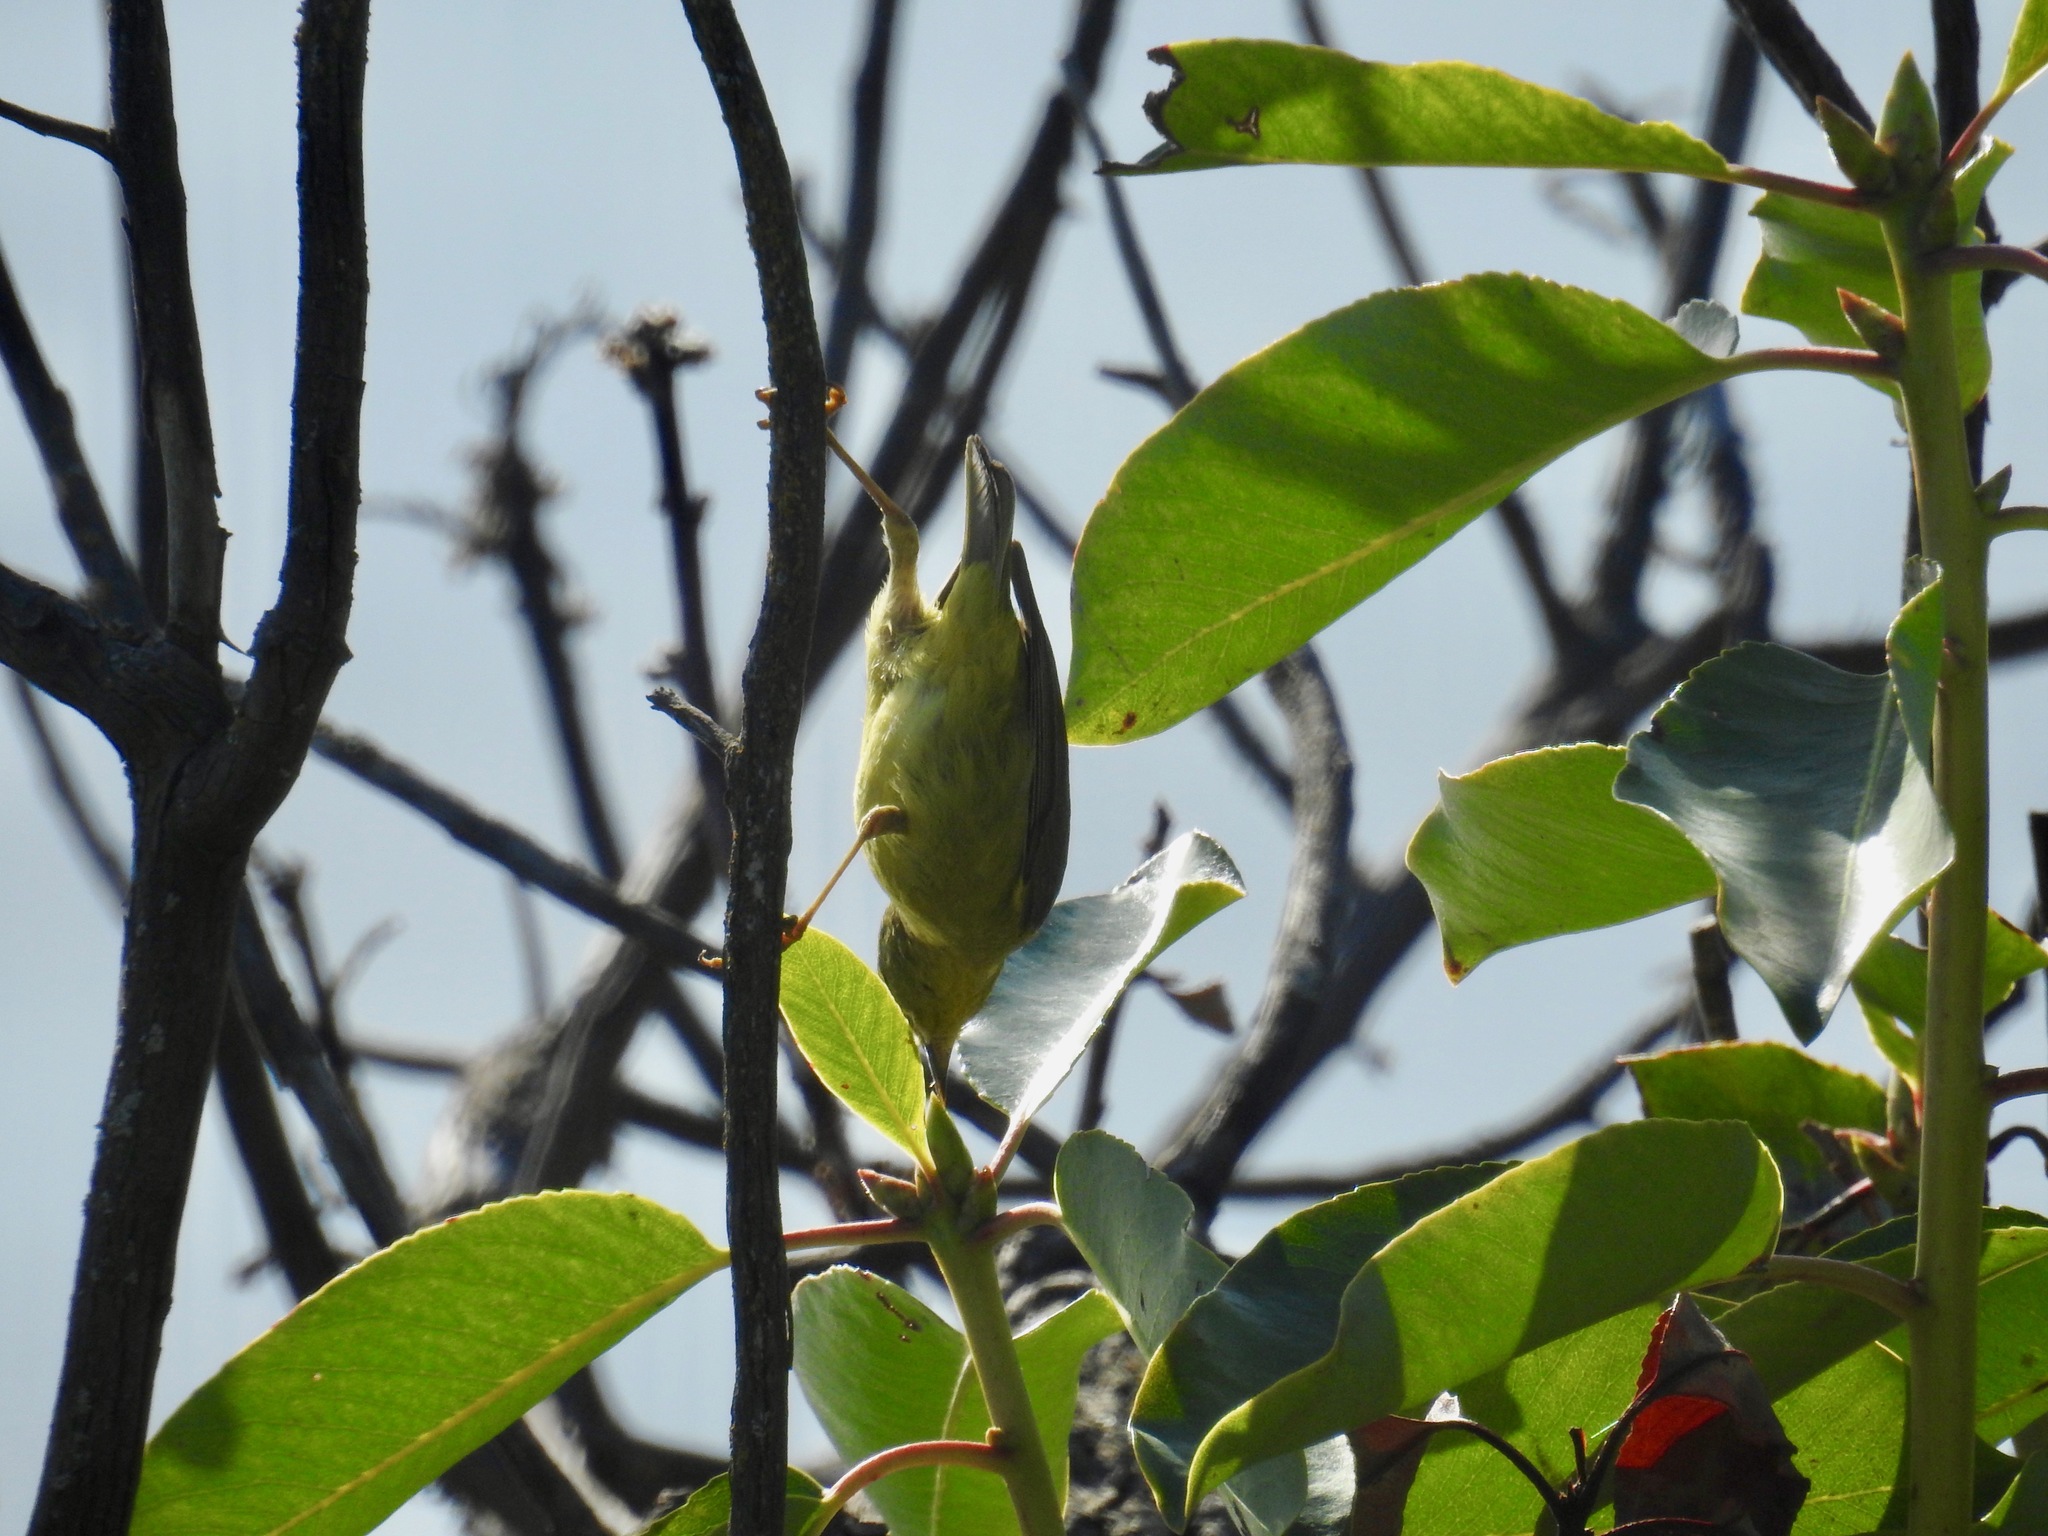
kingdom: Animalia
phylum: Chordata
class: Aves
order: Passeriformes
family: Parulidae
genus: Leiothlypis
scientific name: Leiothlypis celata
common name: Orange-crowned warbler
